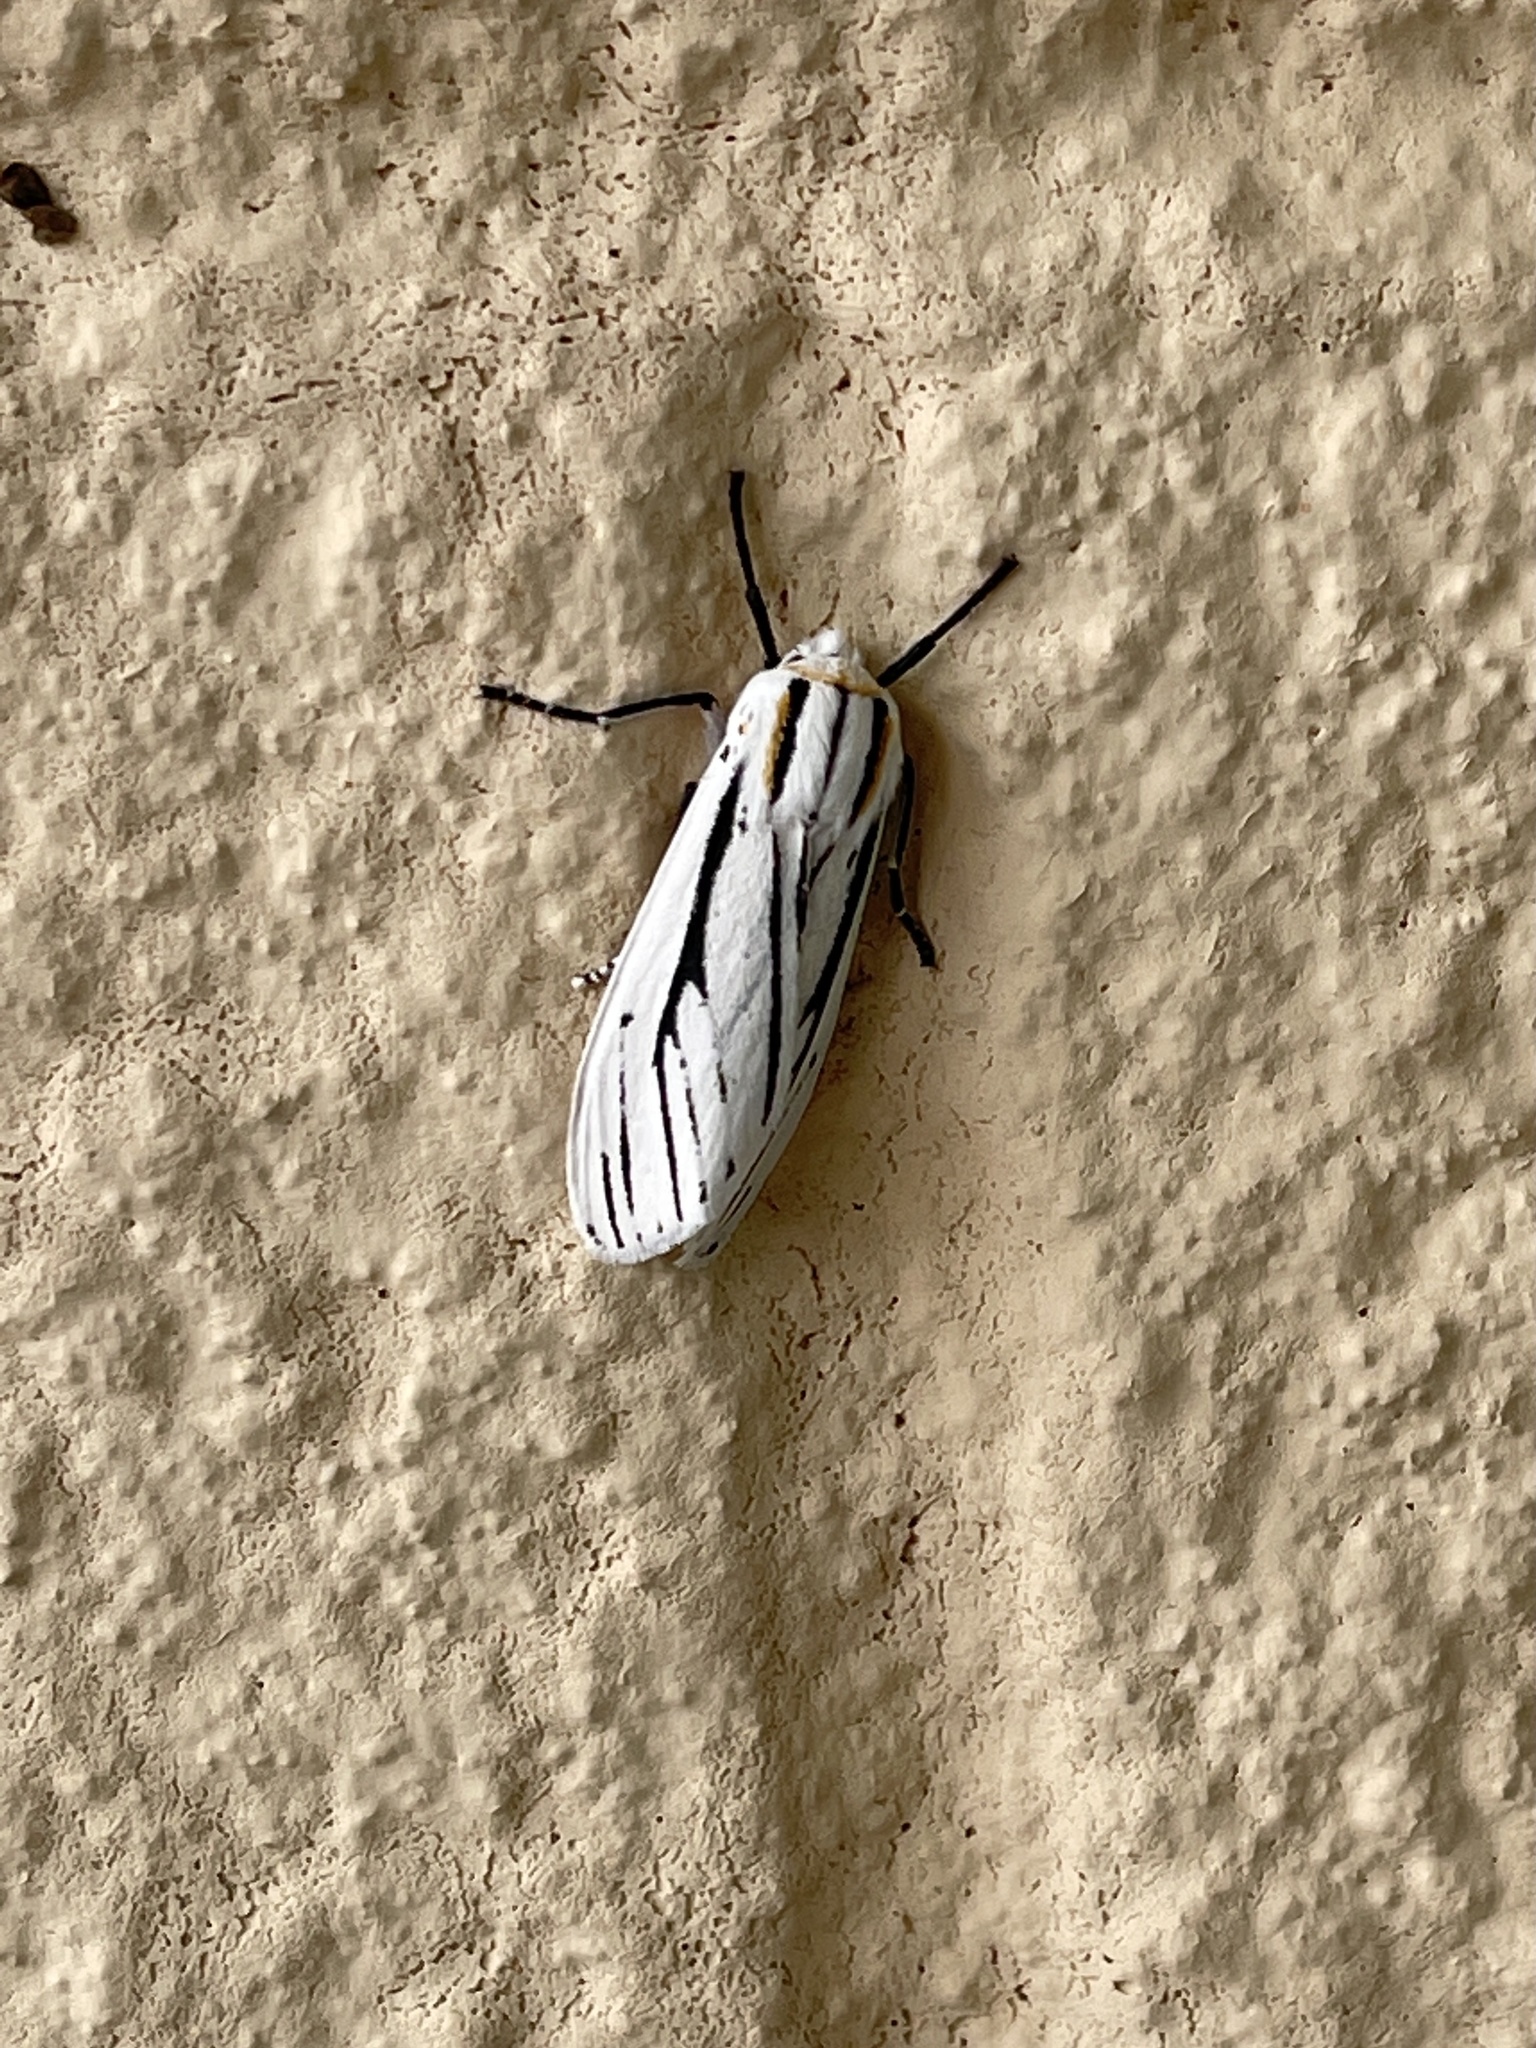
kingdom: Animalia
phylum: Arthropoda
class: Insecta
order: Lepidoptera
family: Erebidae
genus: Ectypia
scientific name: Ectypia clio
